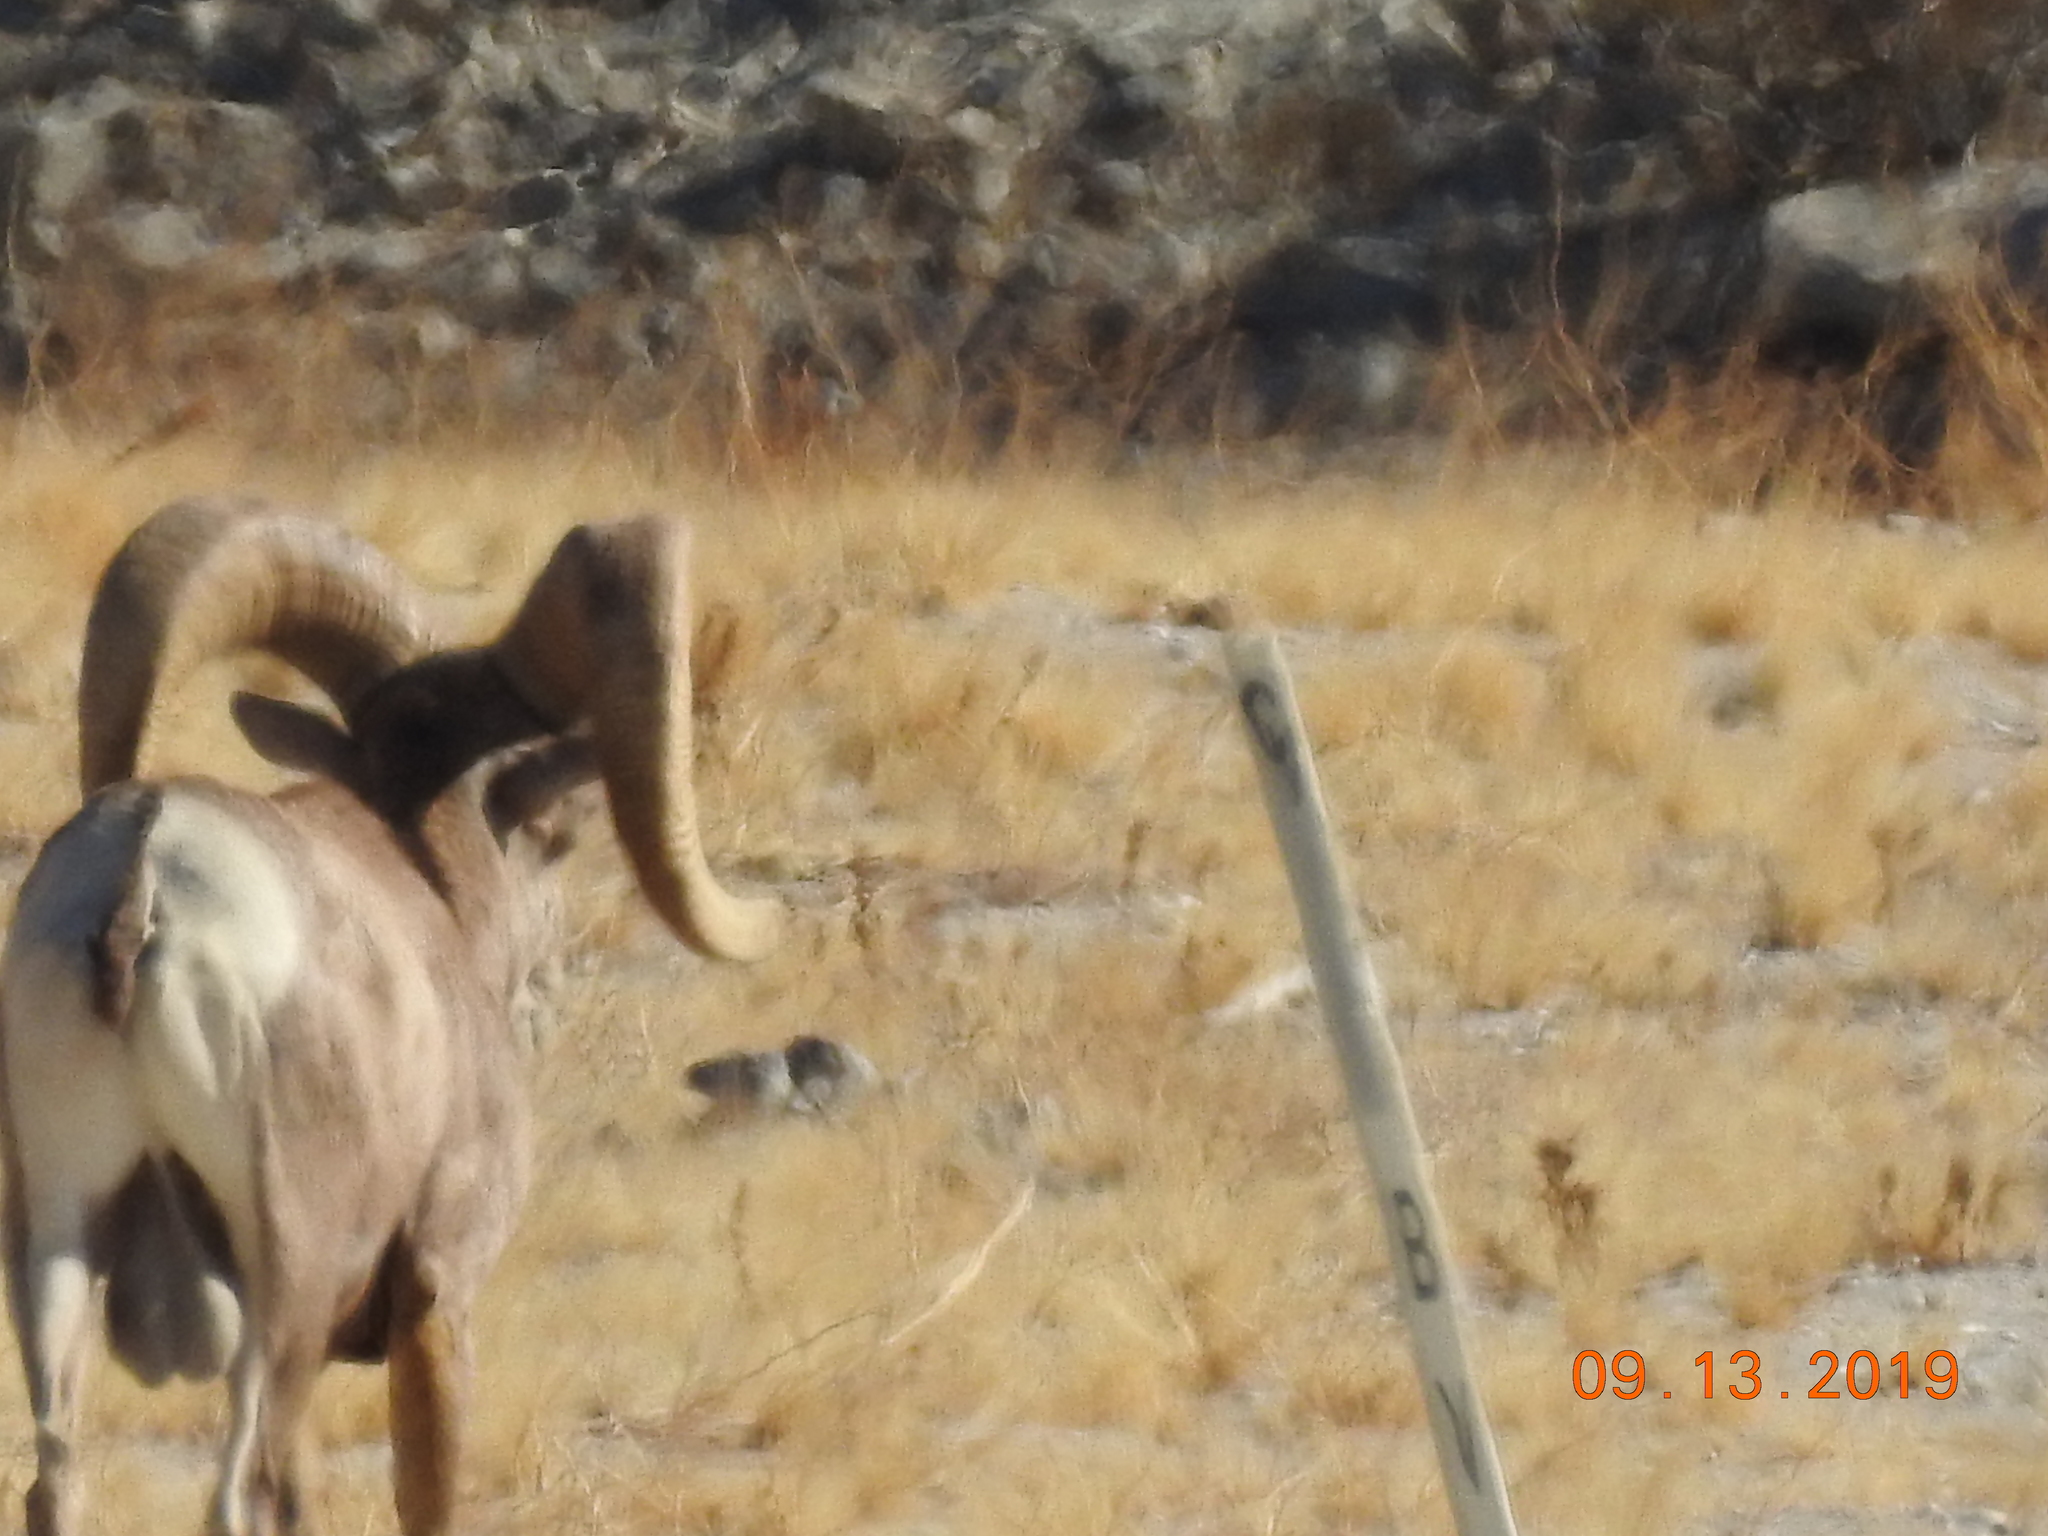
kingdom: Animalia
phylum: Chordata
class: Mammalia
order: Artiodactyla
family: Bovidae
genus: Ovis
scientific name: Ovis canadensis
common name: Bighorn sheep
